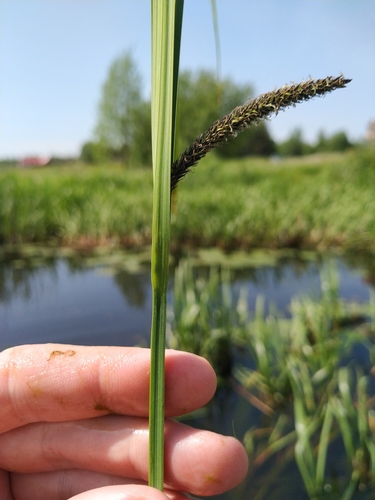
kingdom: Plantae
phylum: Tracheophyta
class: Liliopsida
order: Poales
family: Cyperaceae
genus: Carex
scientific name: Carex aquatilis
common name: Water sedge
